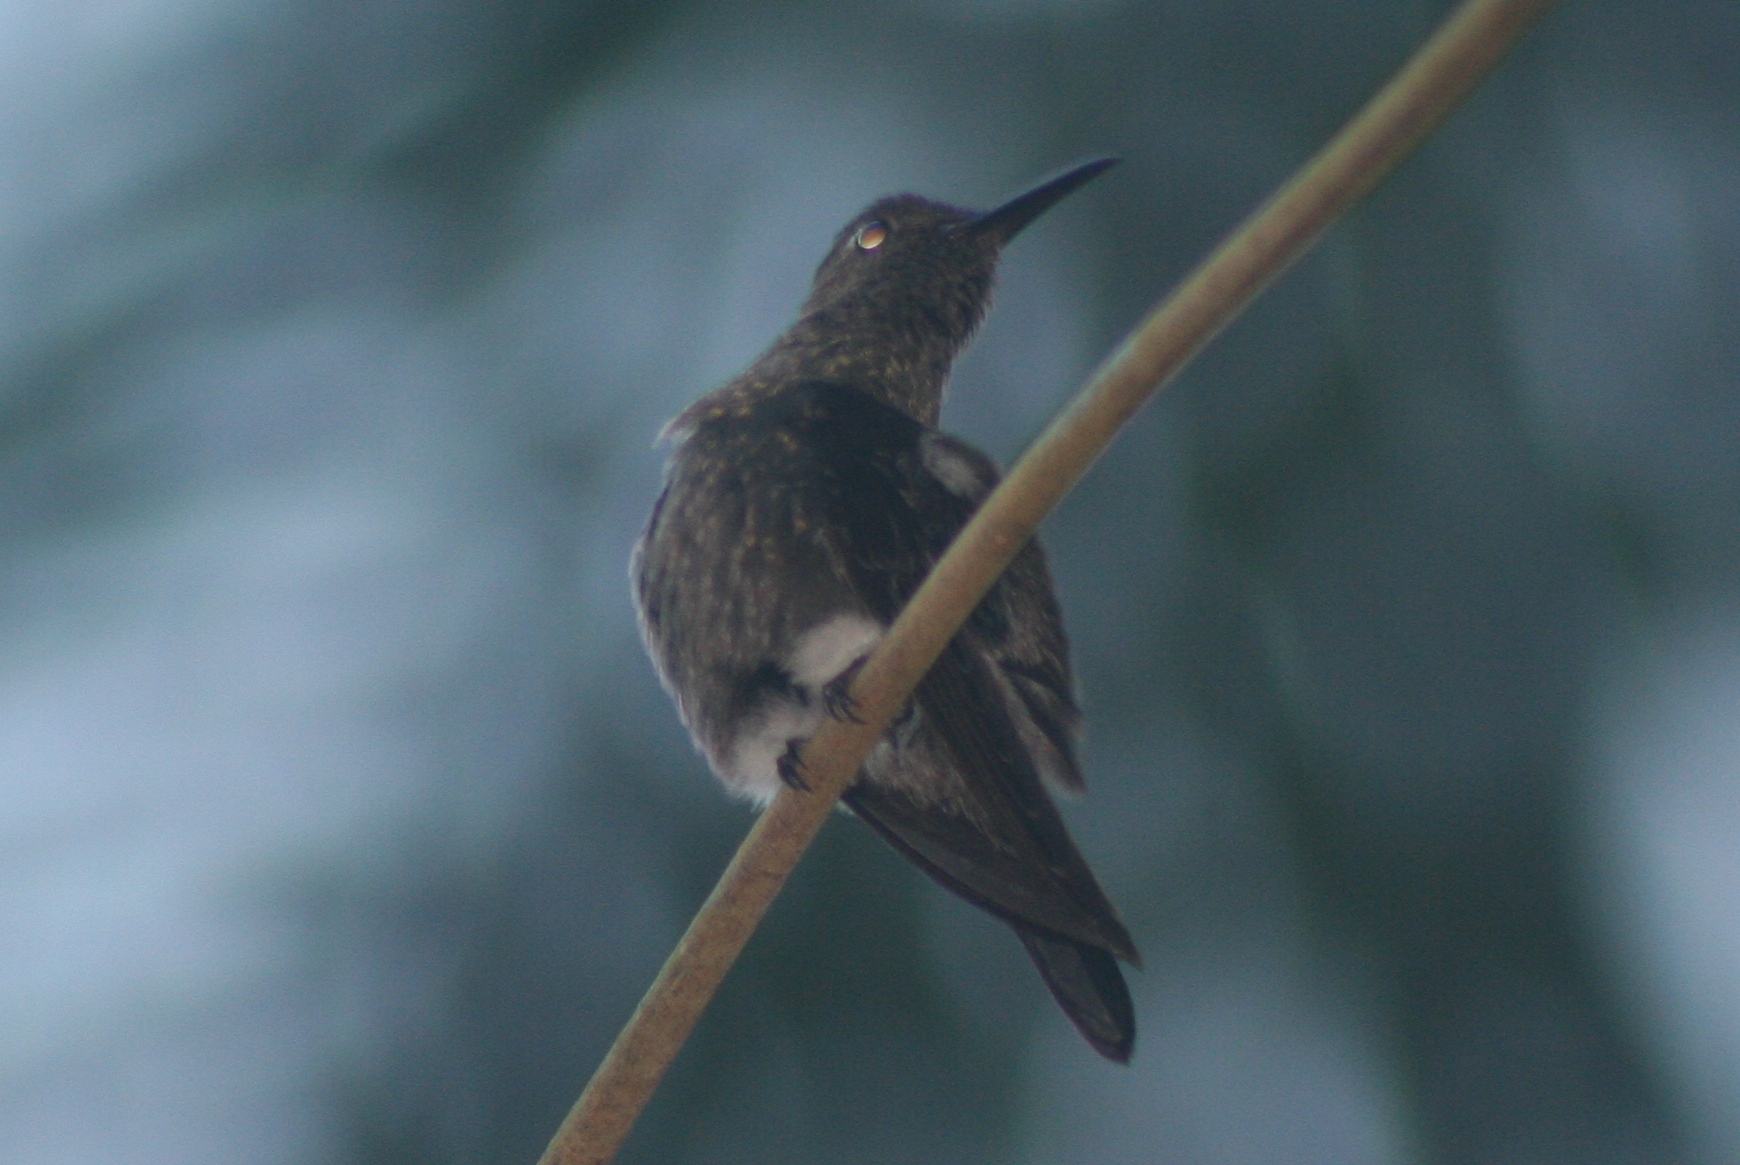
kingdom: Animalia
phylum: Chordata
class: Aves
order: Apodiformes
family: Trochilidae
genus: Eupetomena
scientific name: Eupetomena cirrochloris
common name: Sombre hummingbird
